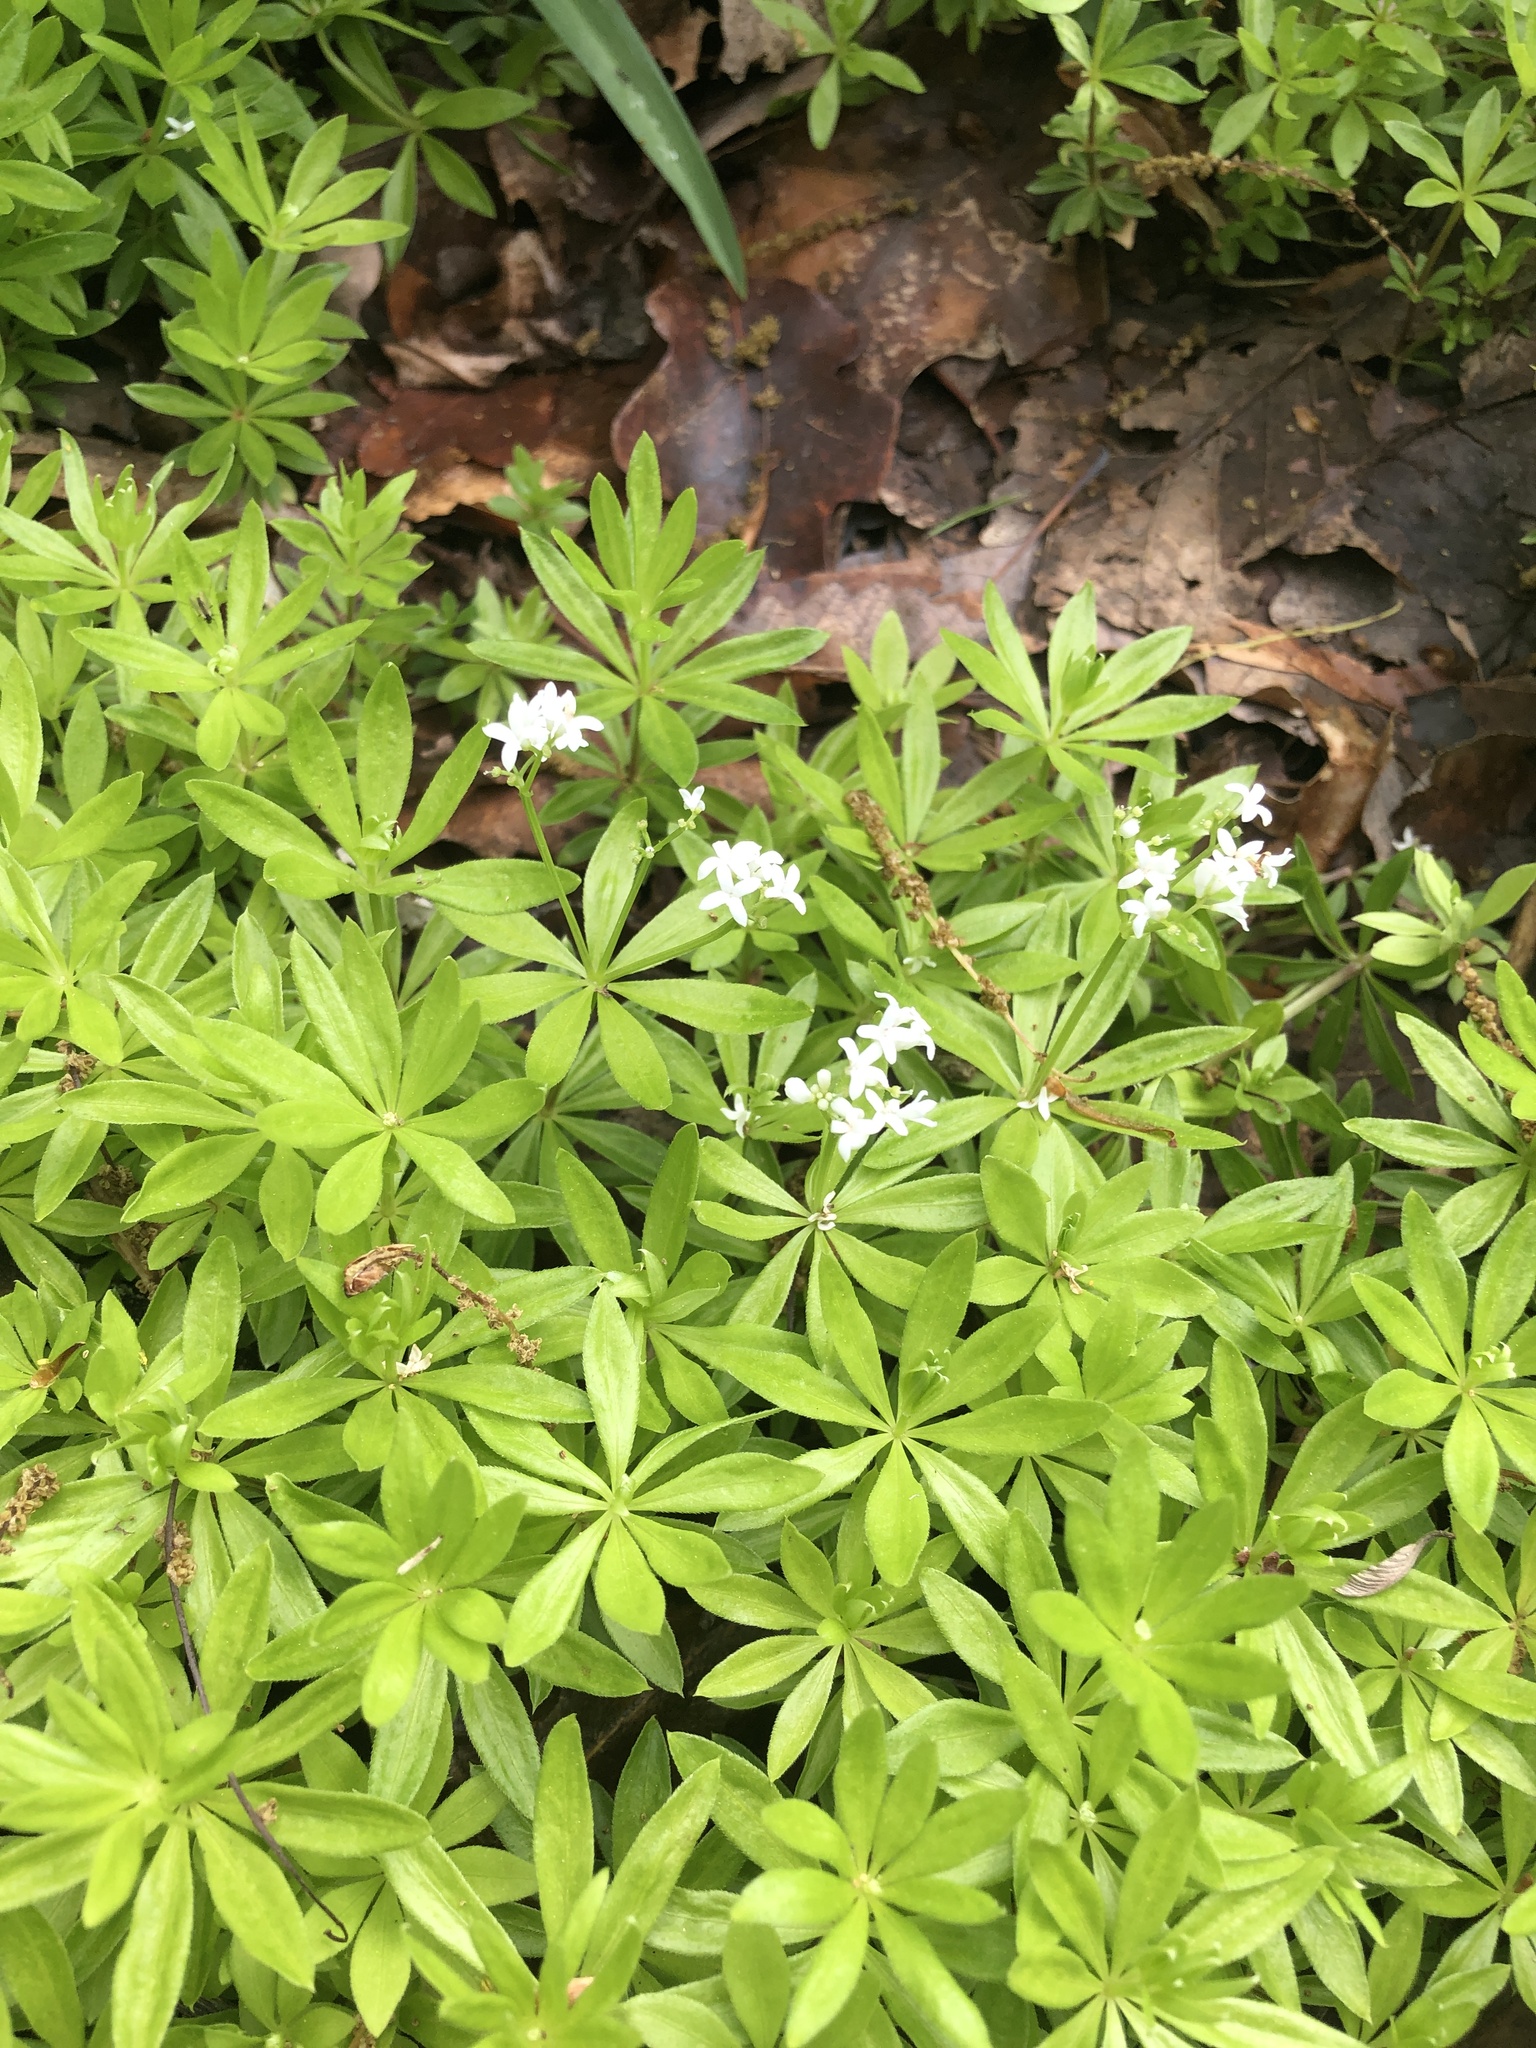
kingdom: Plantae
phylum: Tracheophyta
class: Magnoliopsida
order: Gentianales
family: Rubiaceae
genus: Galium
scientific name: Galium odoratum
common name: Sweet woodruff
